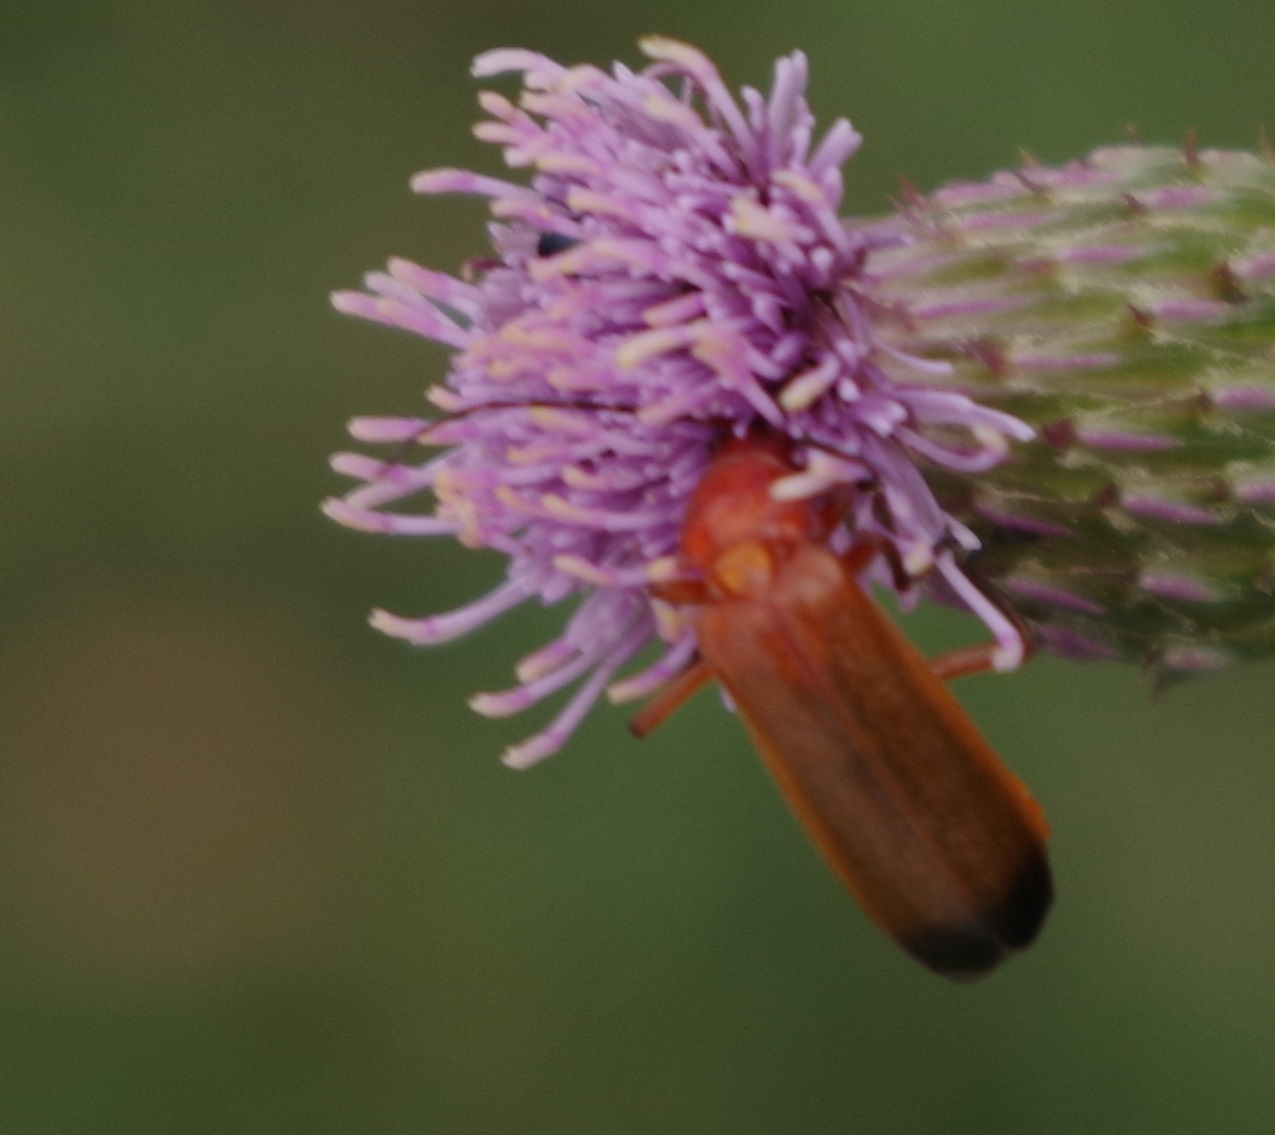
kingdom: Animalia
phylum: Arthropoda
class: Insecta
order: Coleoptera
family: Cantharidae
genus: Rhagonycha
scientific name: Rhagonycha fulva
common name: Common red soldier beetle
